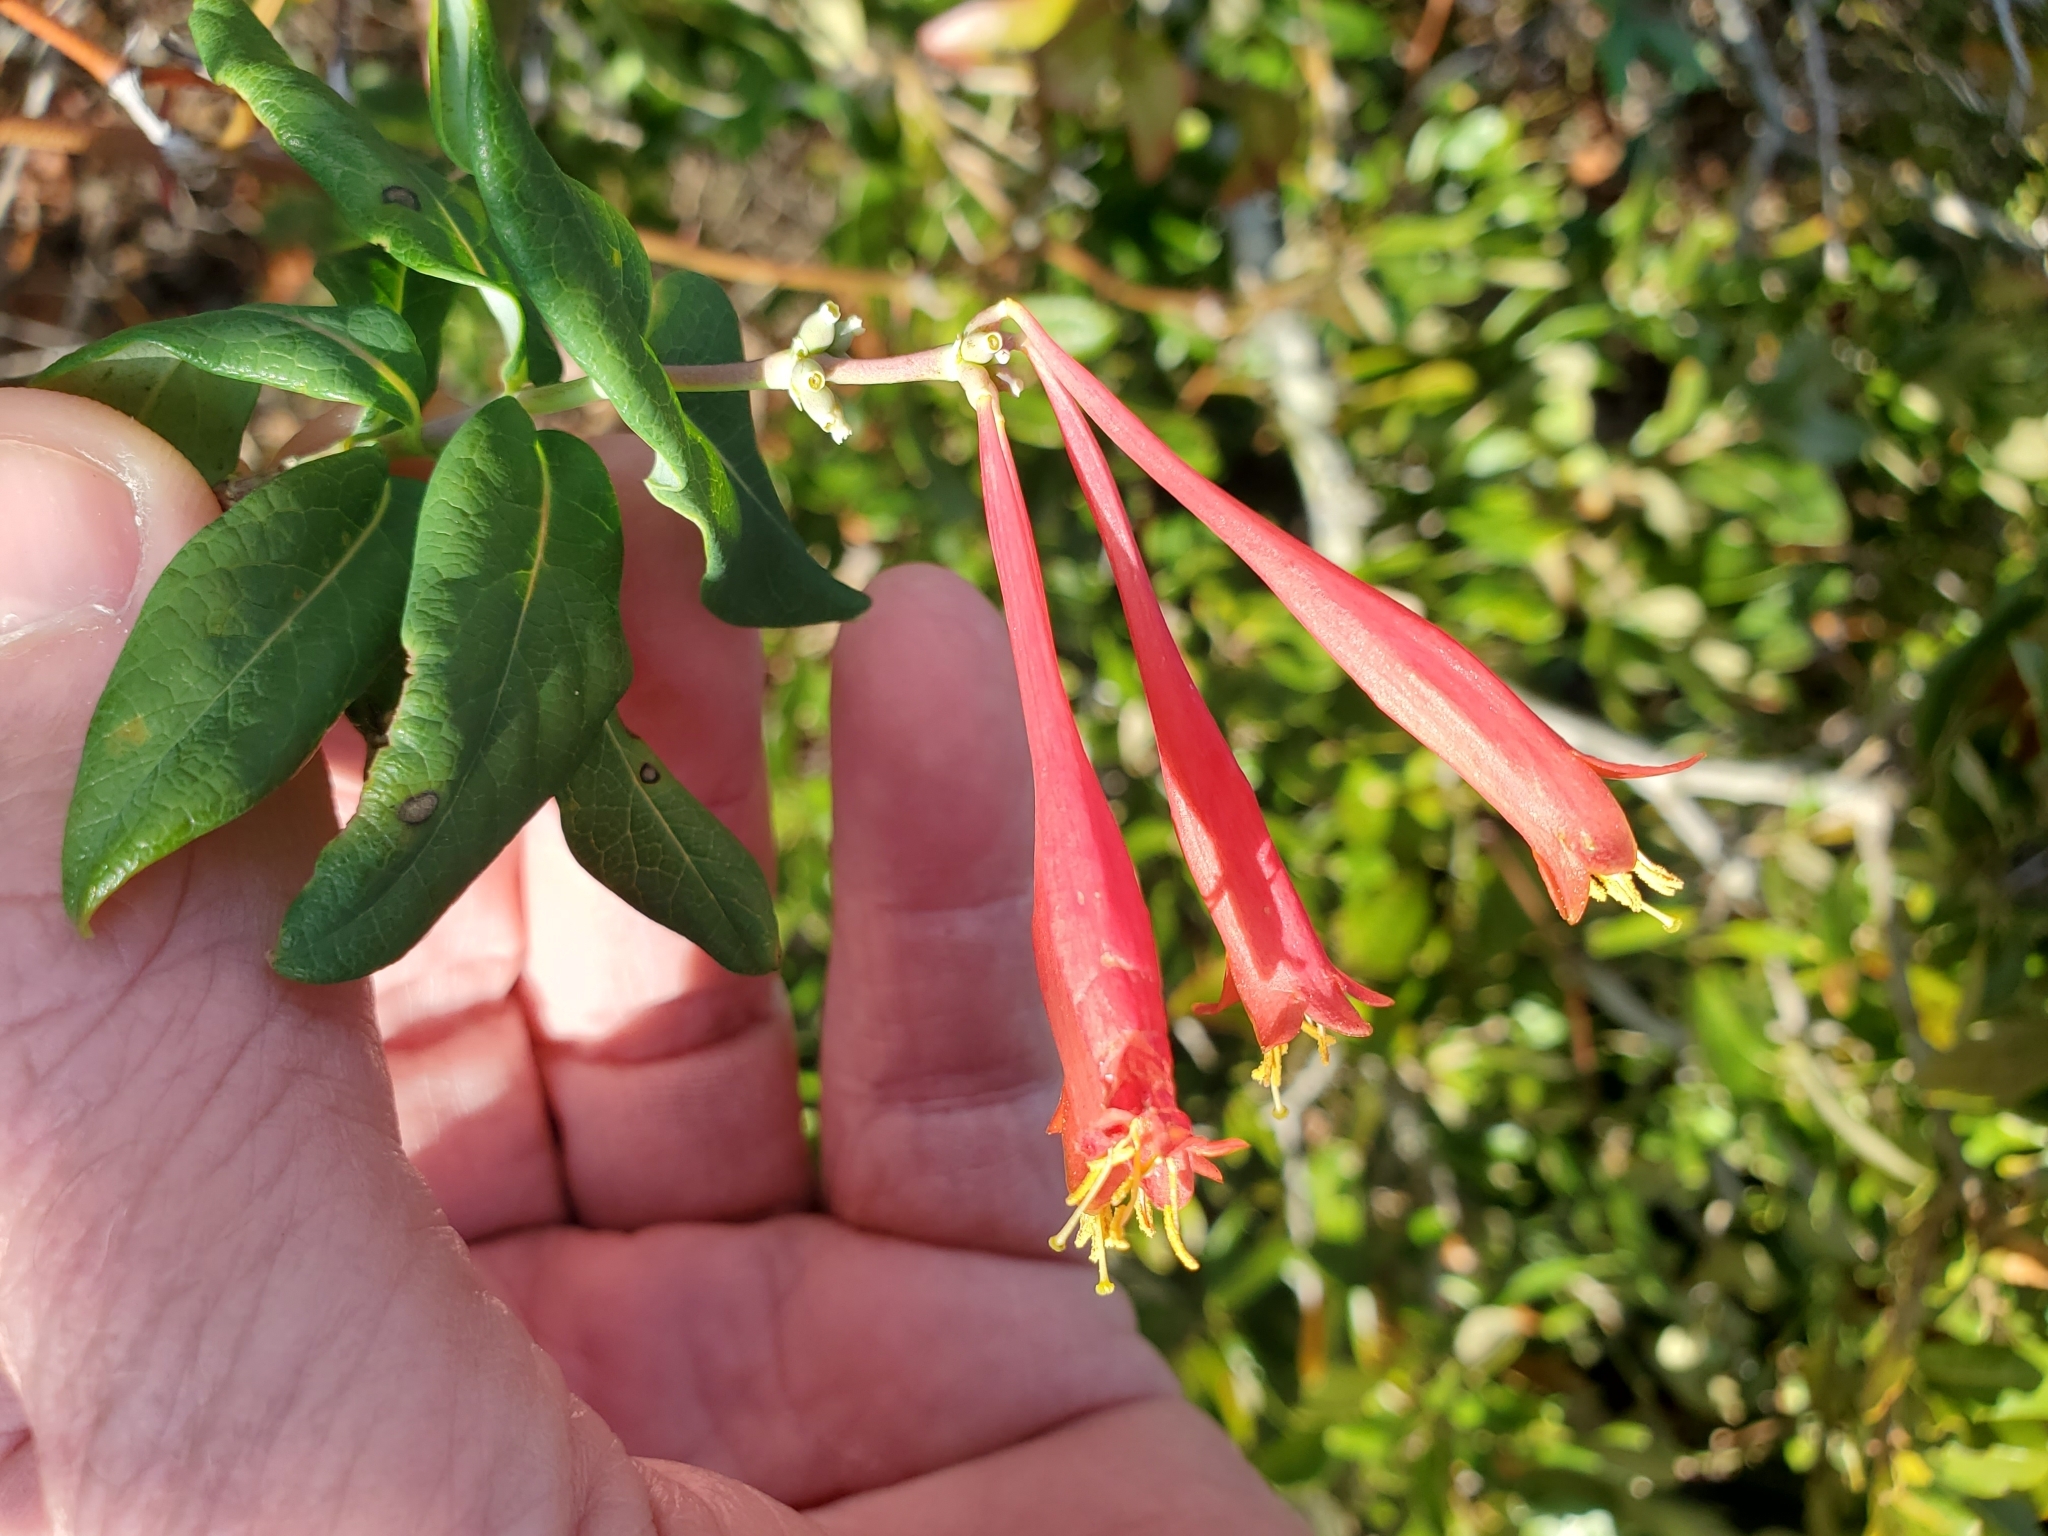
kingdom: Plantae
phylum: Tracheophyta
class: Magnoliopsida
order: Dipsacales
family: Caprifoliaceae
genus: Lonicera
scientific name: Lonicera sempervirens
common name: Coral honeysuckle
